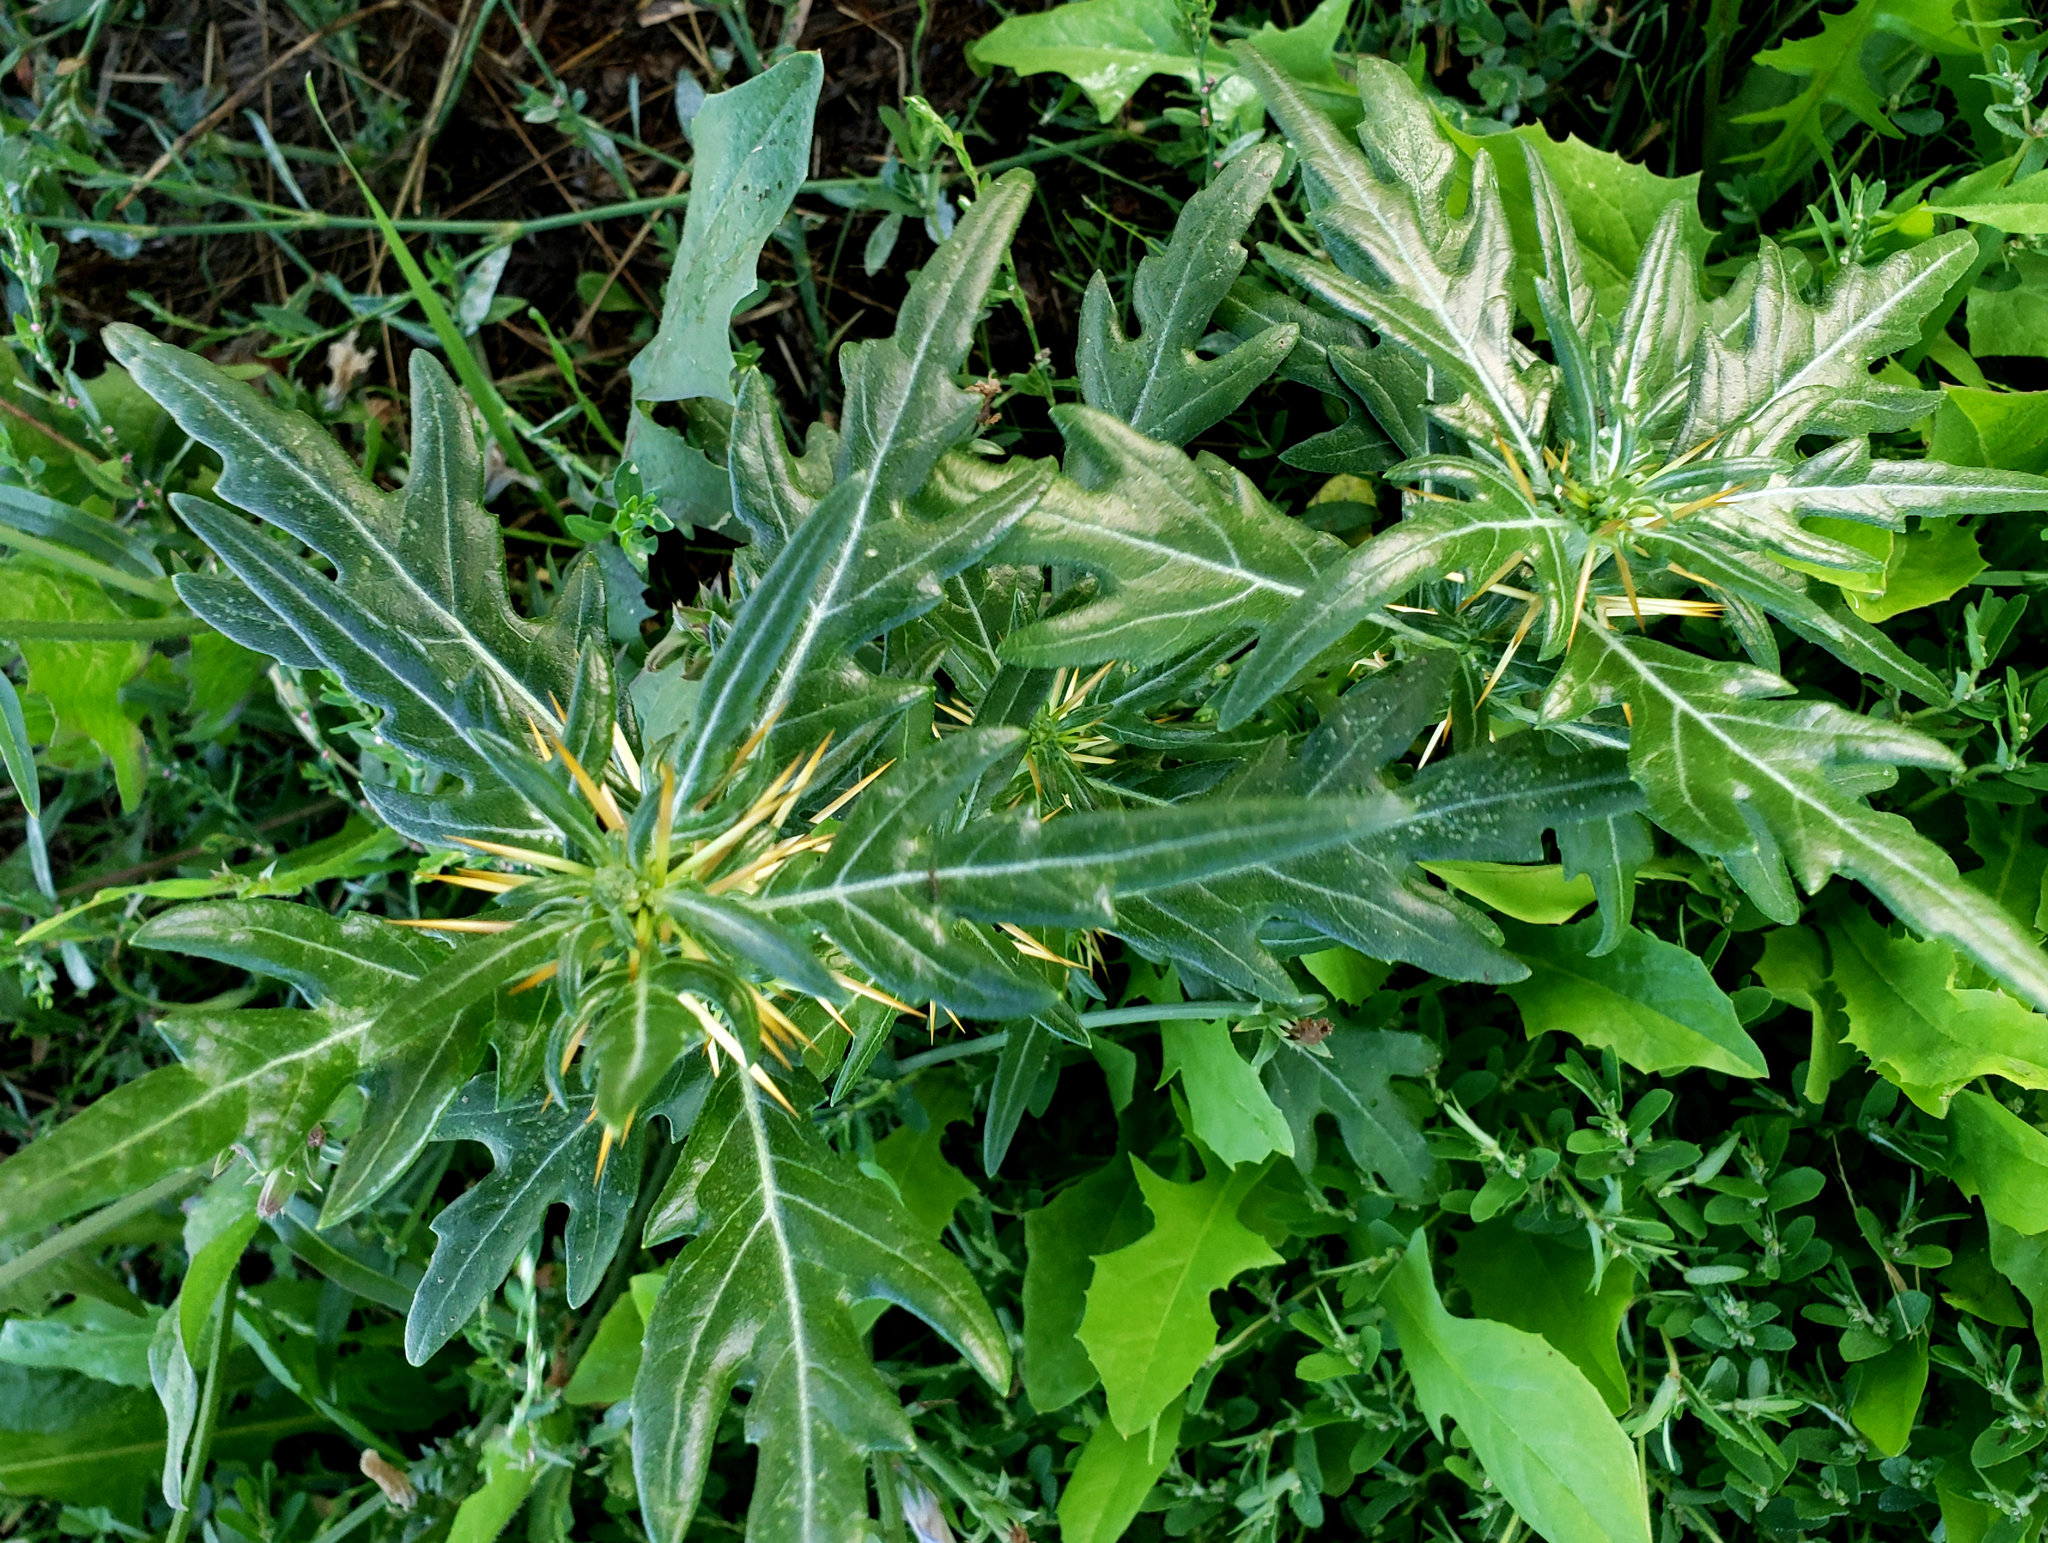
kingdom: Plantae
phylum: Tracheophyta
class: Magnoliopsida
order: Asterales
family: Asteraceae
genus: Xanthium
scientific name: Xanthium spinosum
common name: Spiny cocklebur
